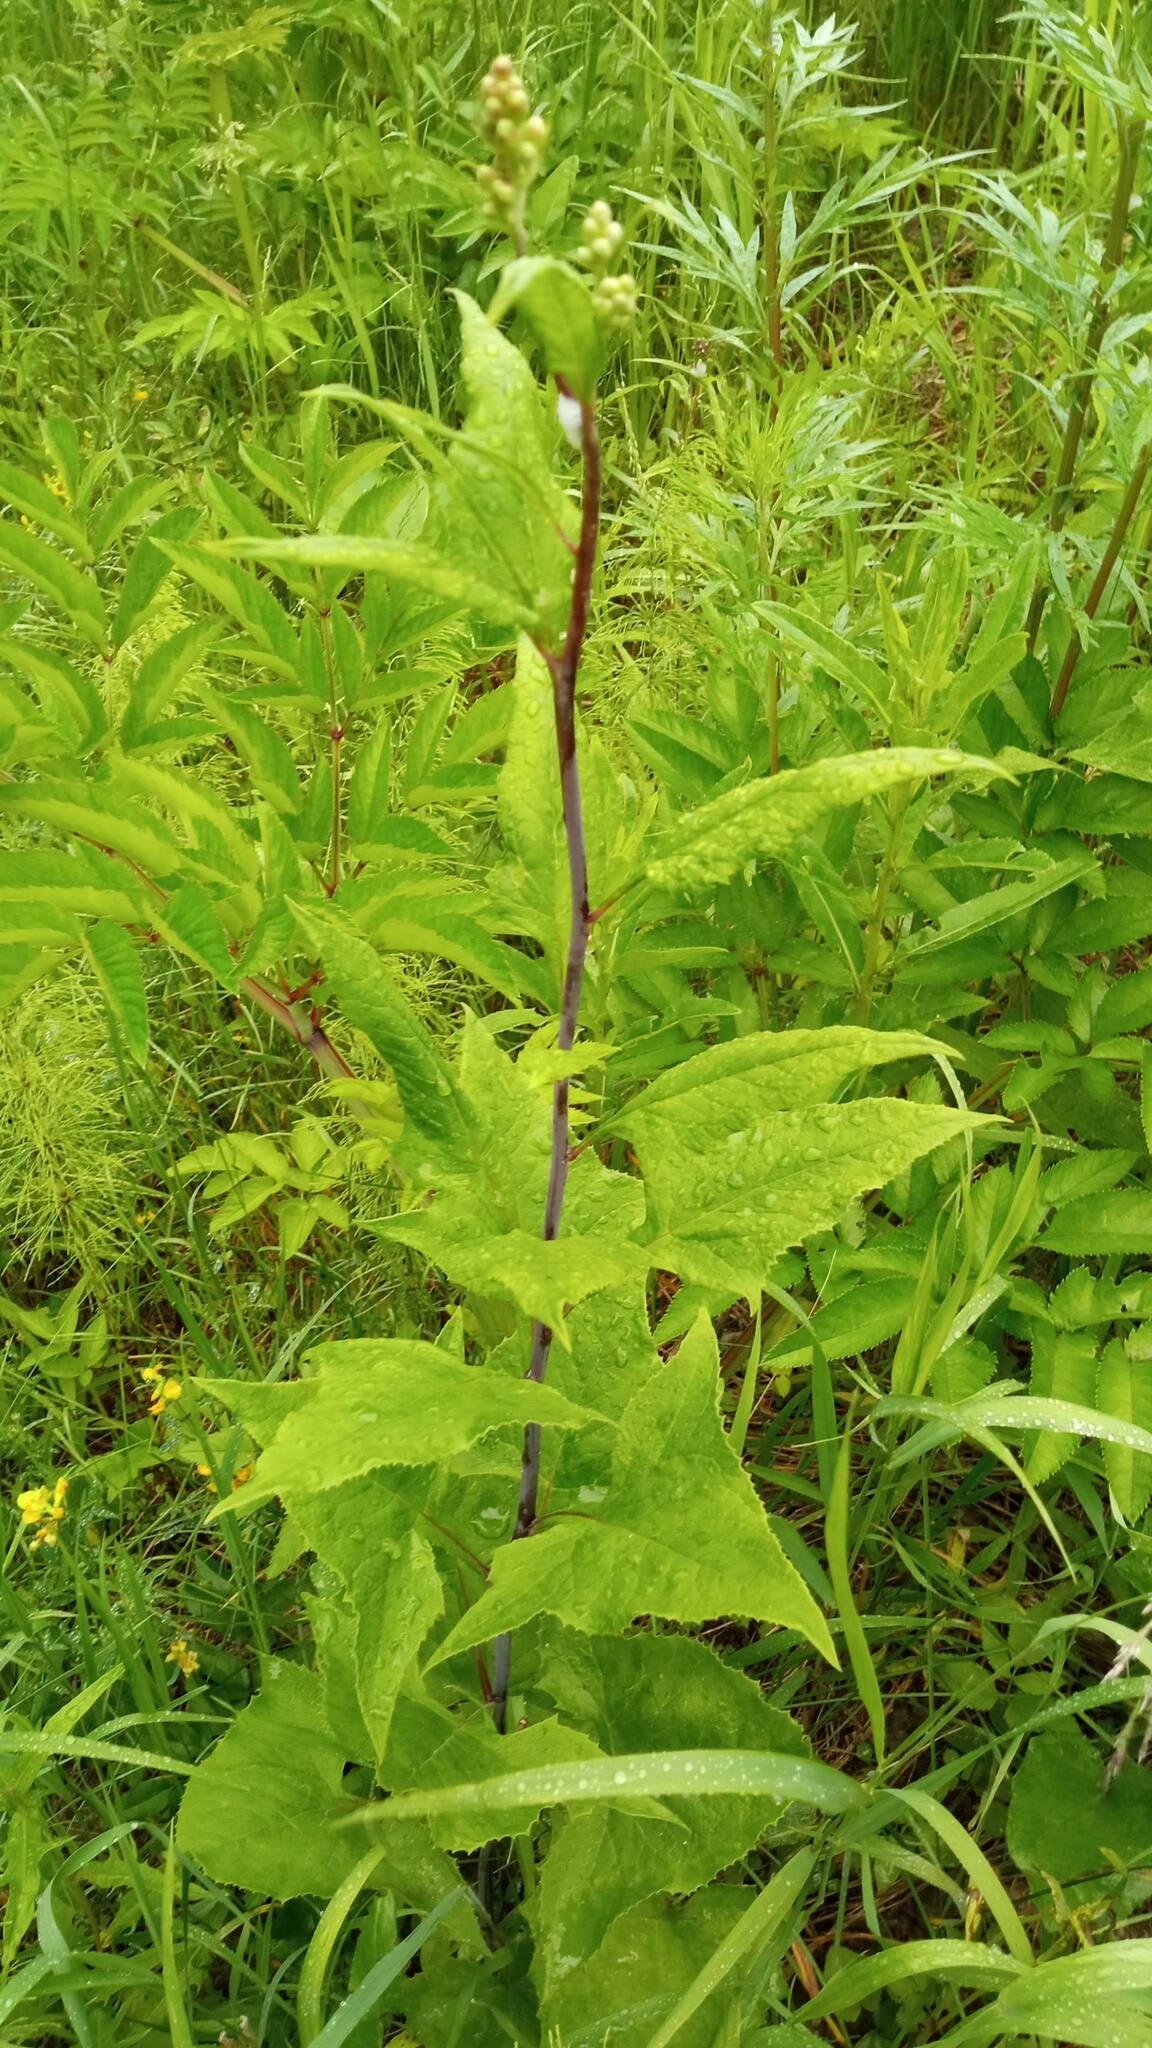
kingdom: Plantae
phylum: Tracheophyta
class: Magnoliopsida
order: Asterales
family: Asteraceae
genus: Parasenecio
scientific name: Parasenecio hastatus
